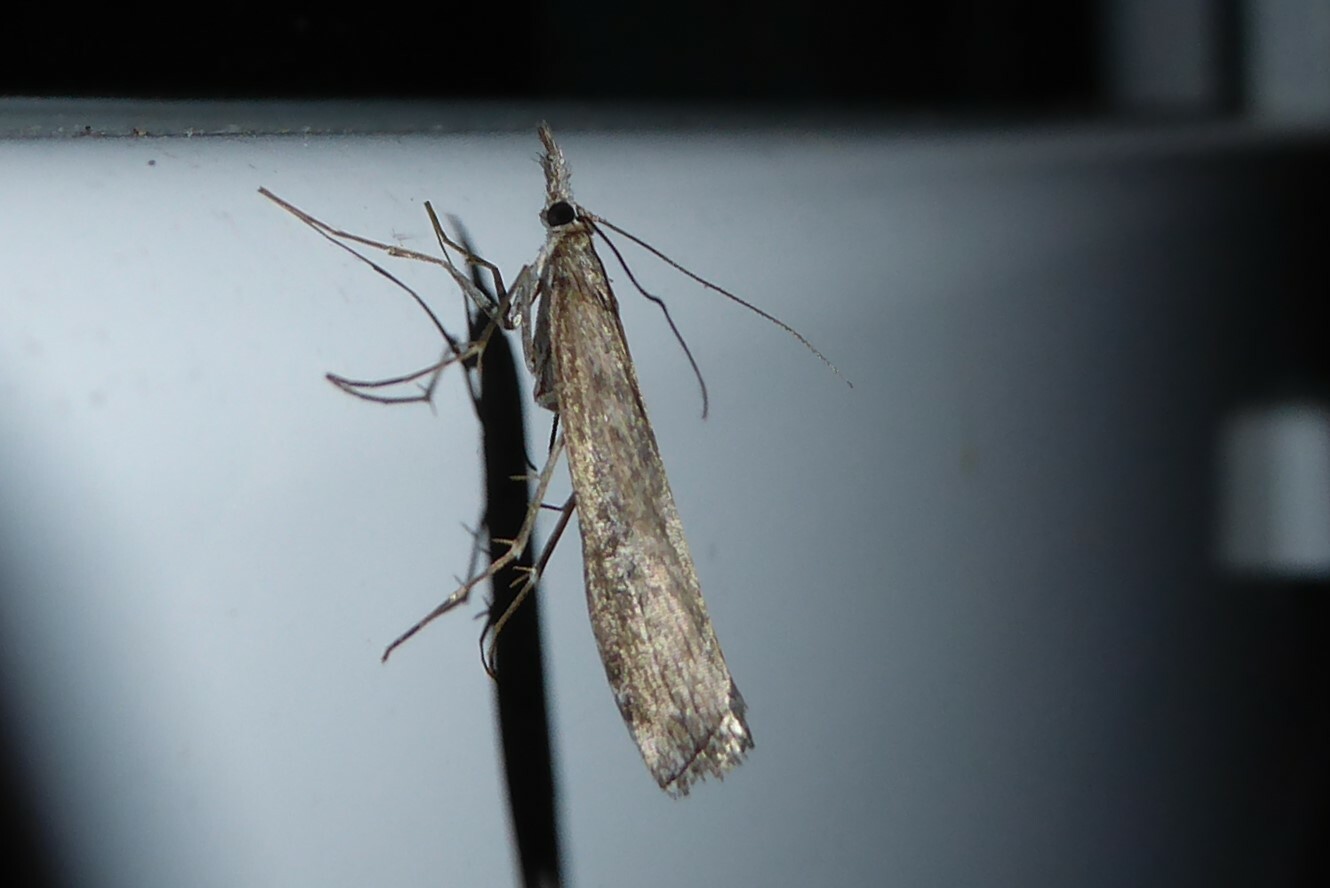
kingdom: Animalia
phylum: Arthropoda
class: Insecta
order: Lepidoptera
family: Crambidae
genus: Orocrambus
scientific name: Orocrambus cyclopicus
